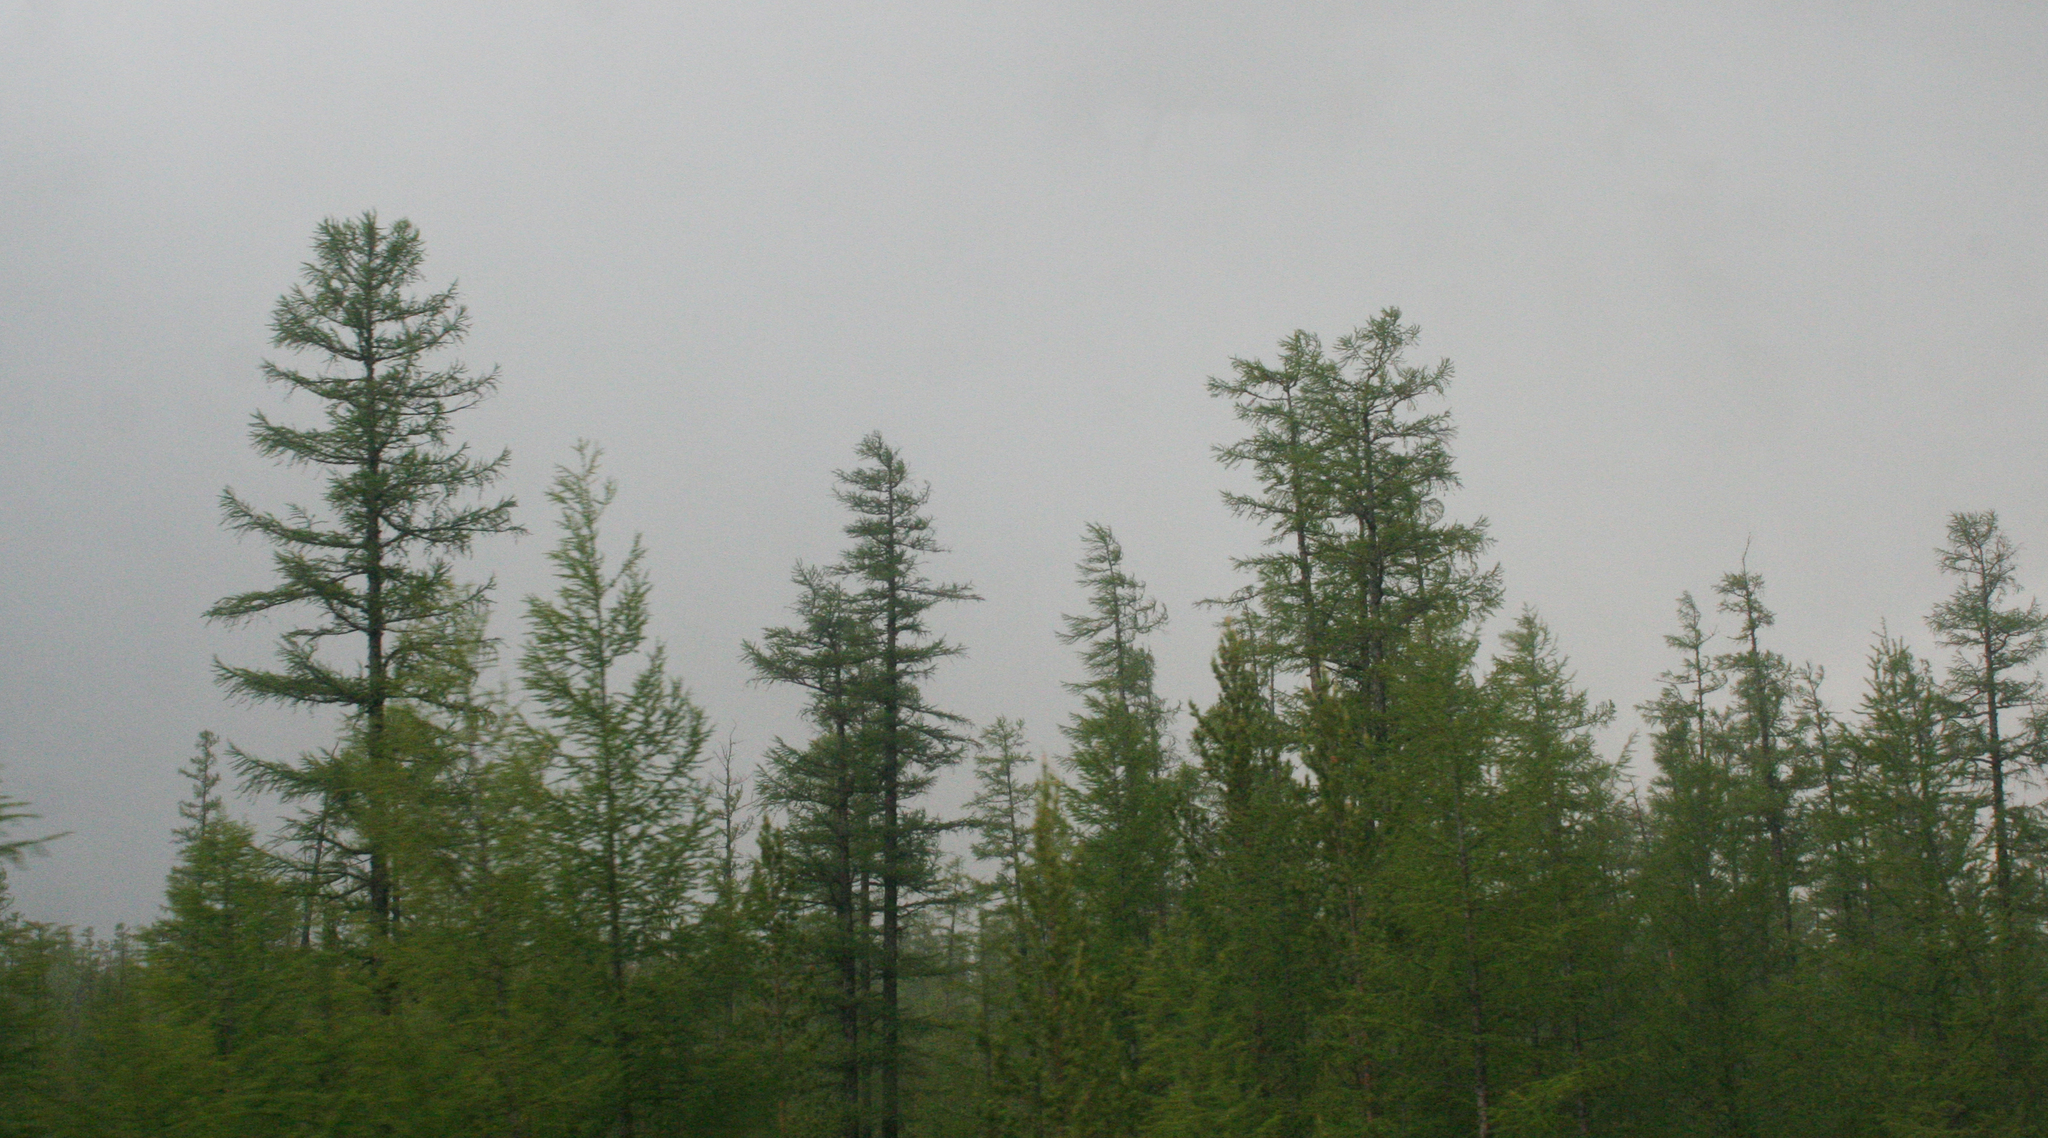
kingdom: Plantae
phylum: Tracheophyta
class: Pinopsida
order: Pinales
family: Pinaceae
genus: Larix
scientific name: Larix gmelinii
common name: Dahurian larch
